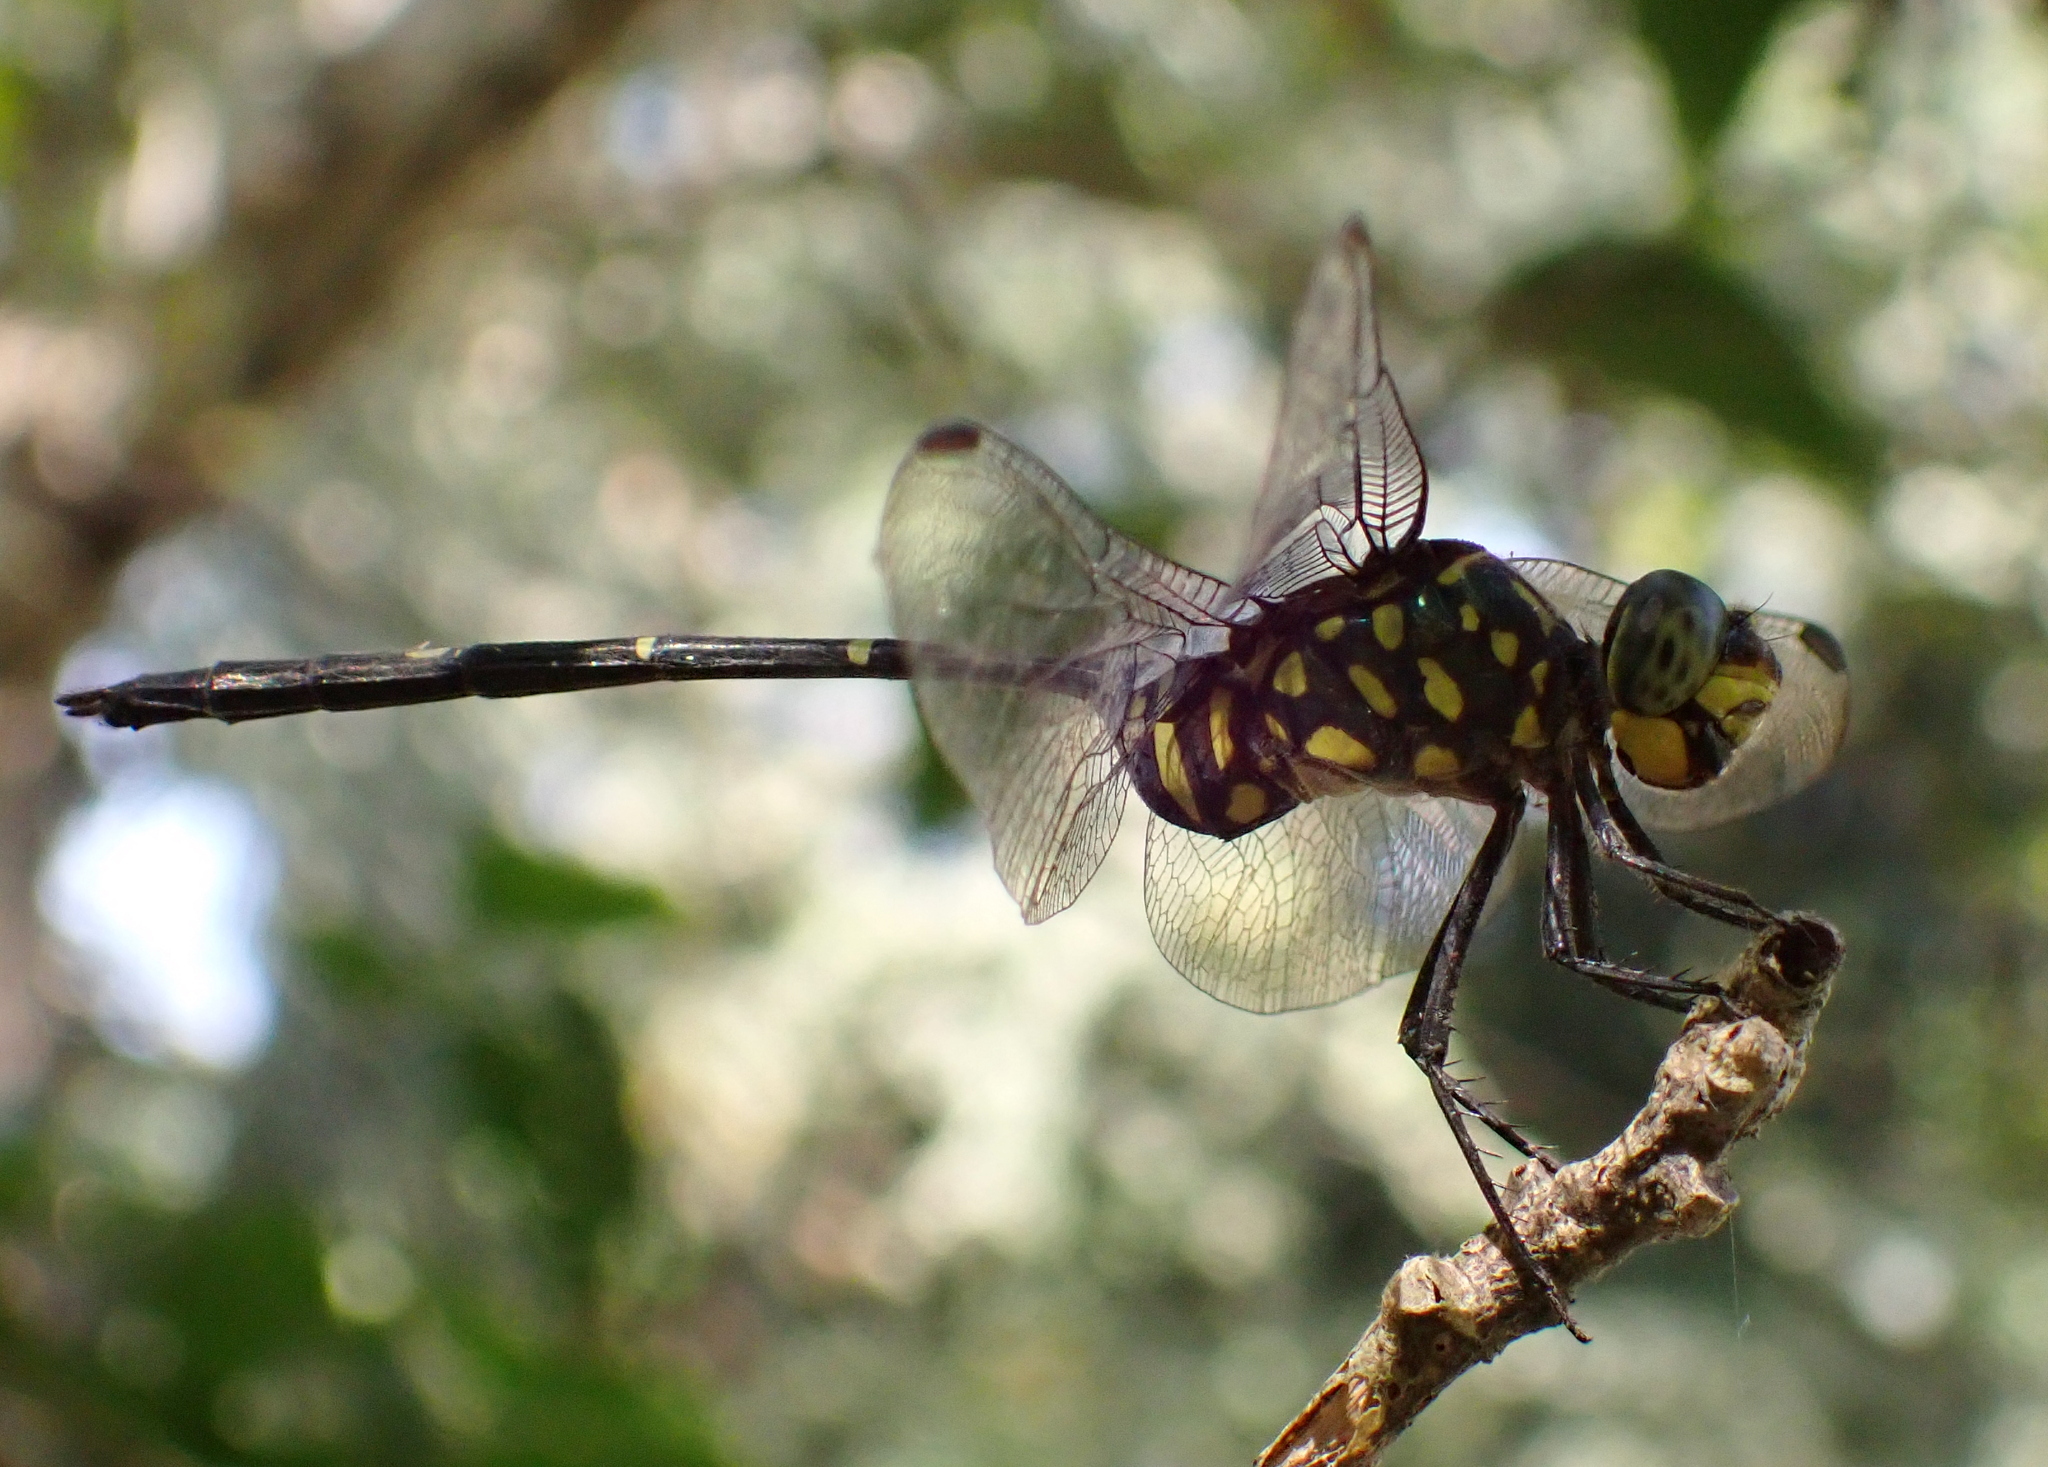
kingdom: Animalia
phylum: Arthropoda
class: Insecta
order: Odonata
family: Libellulidae
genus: Olpogastra
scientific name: Olpogastra lugubris
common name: Bottletail
